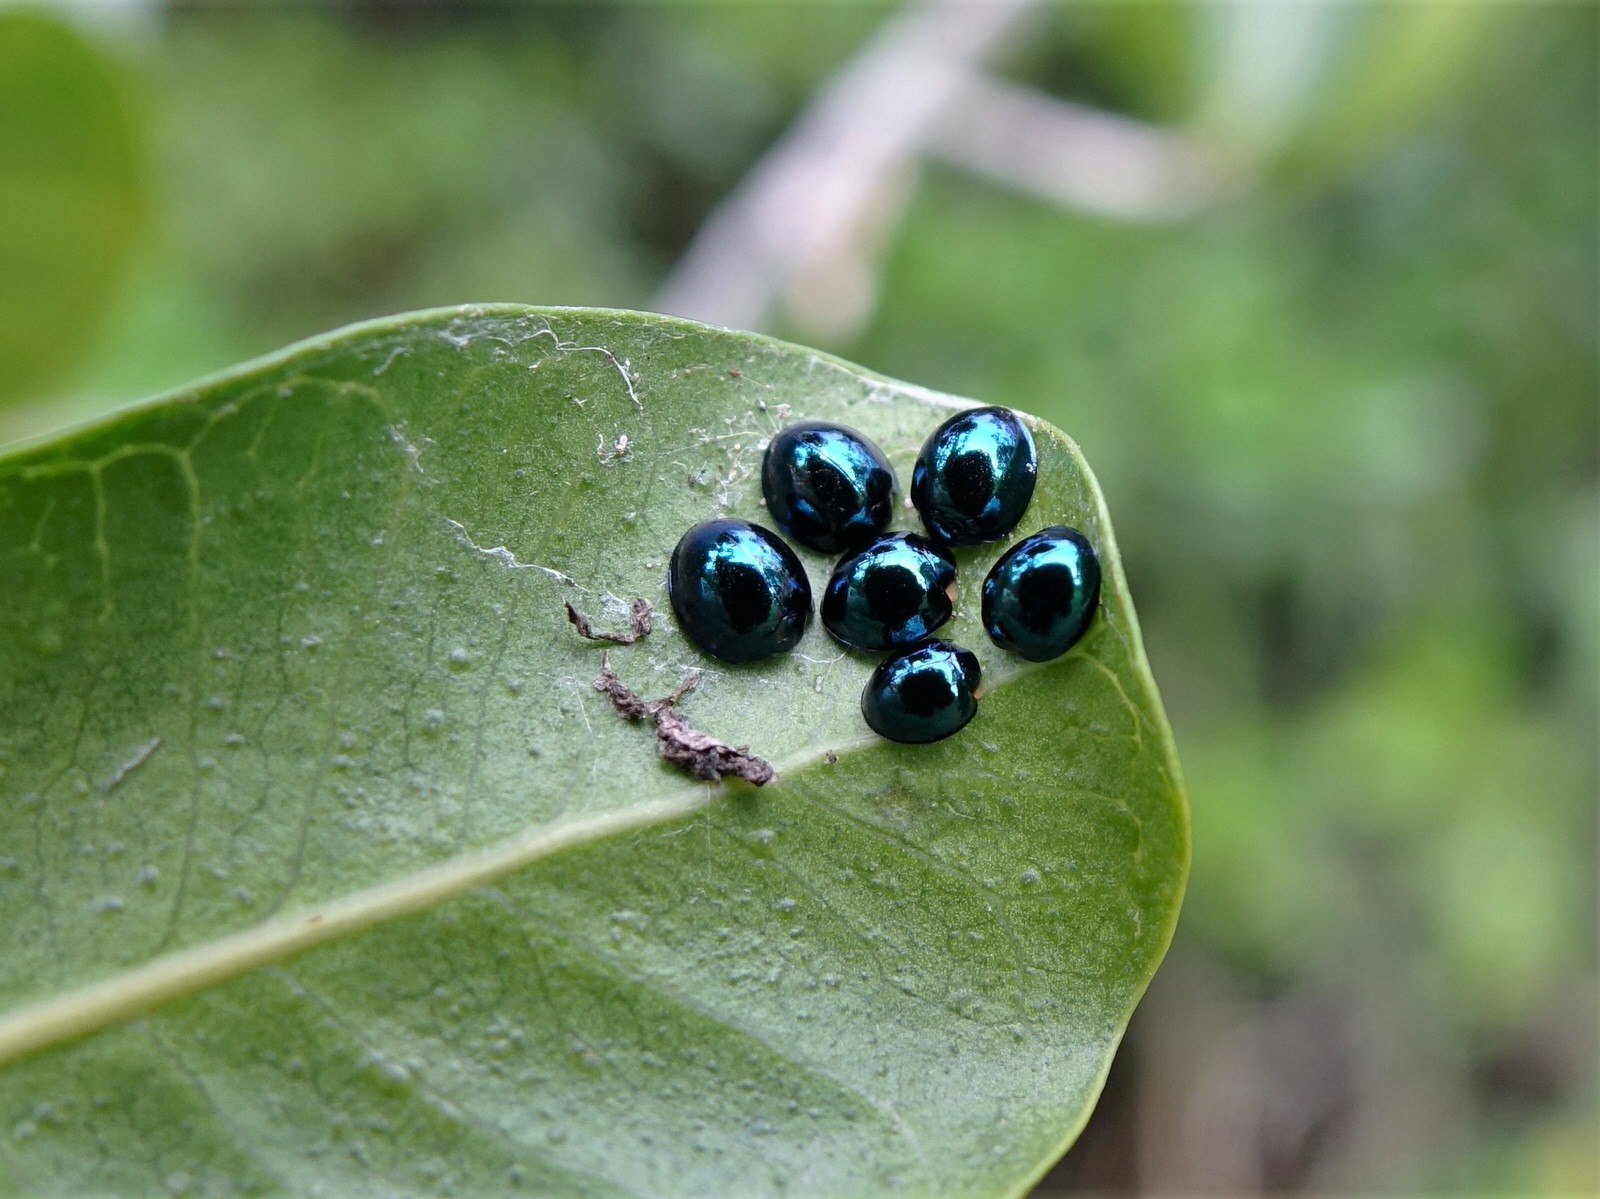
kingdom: Animalia
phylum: Arthropoda
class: Insecta
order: Coleoptera
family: Coccinellidae
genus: Halmus
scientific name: Halmus chalybeus
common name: Steel blue ladybird beetle
